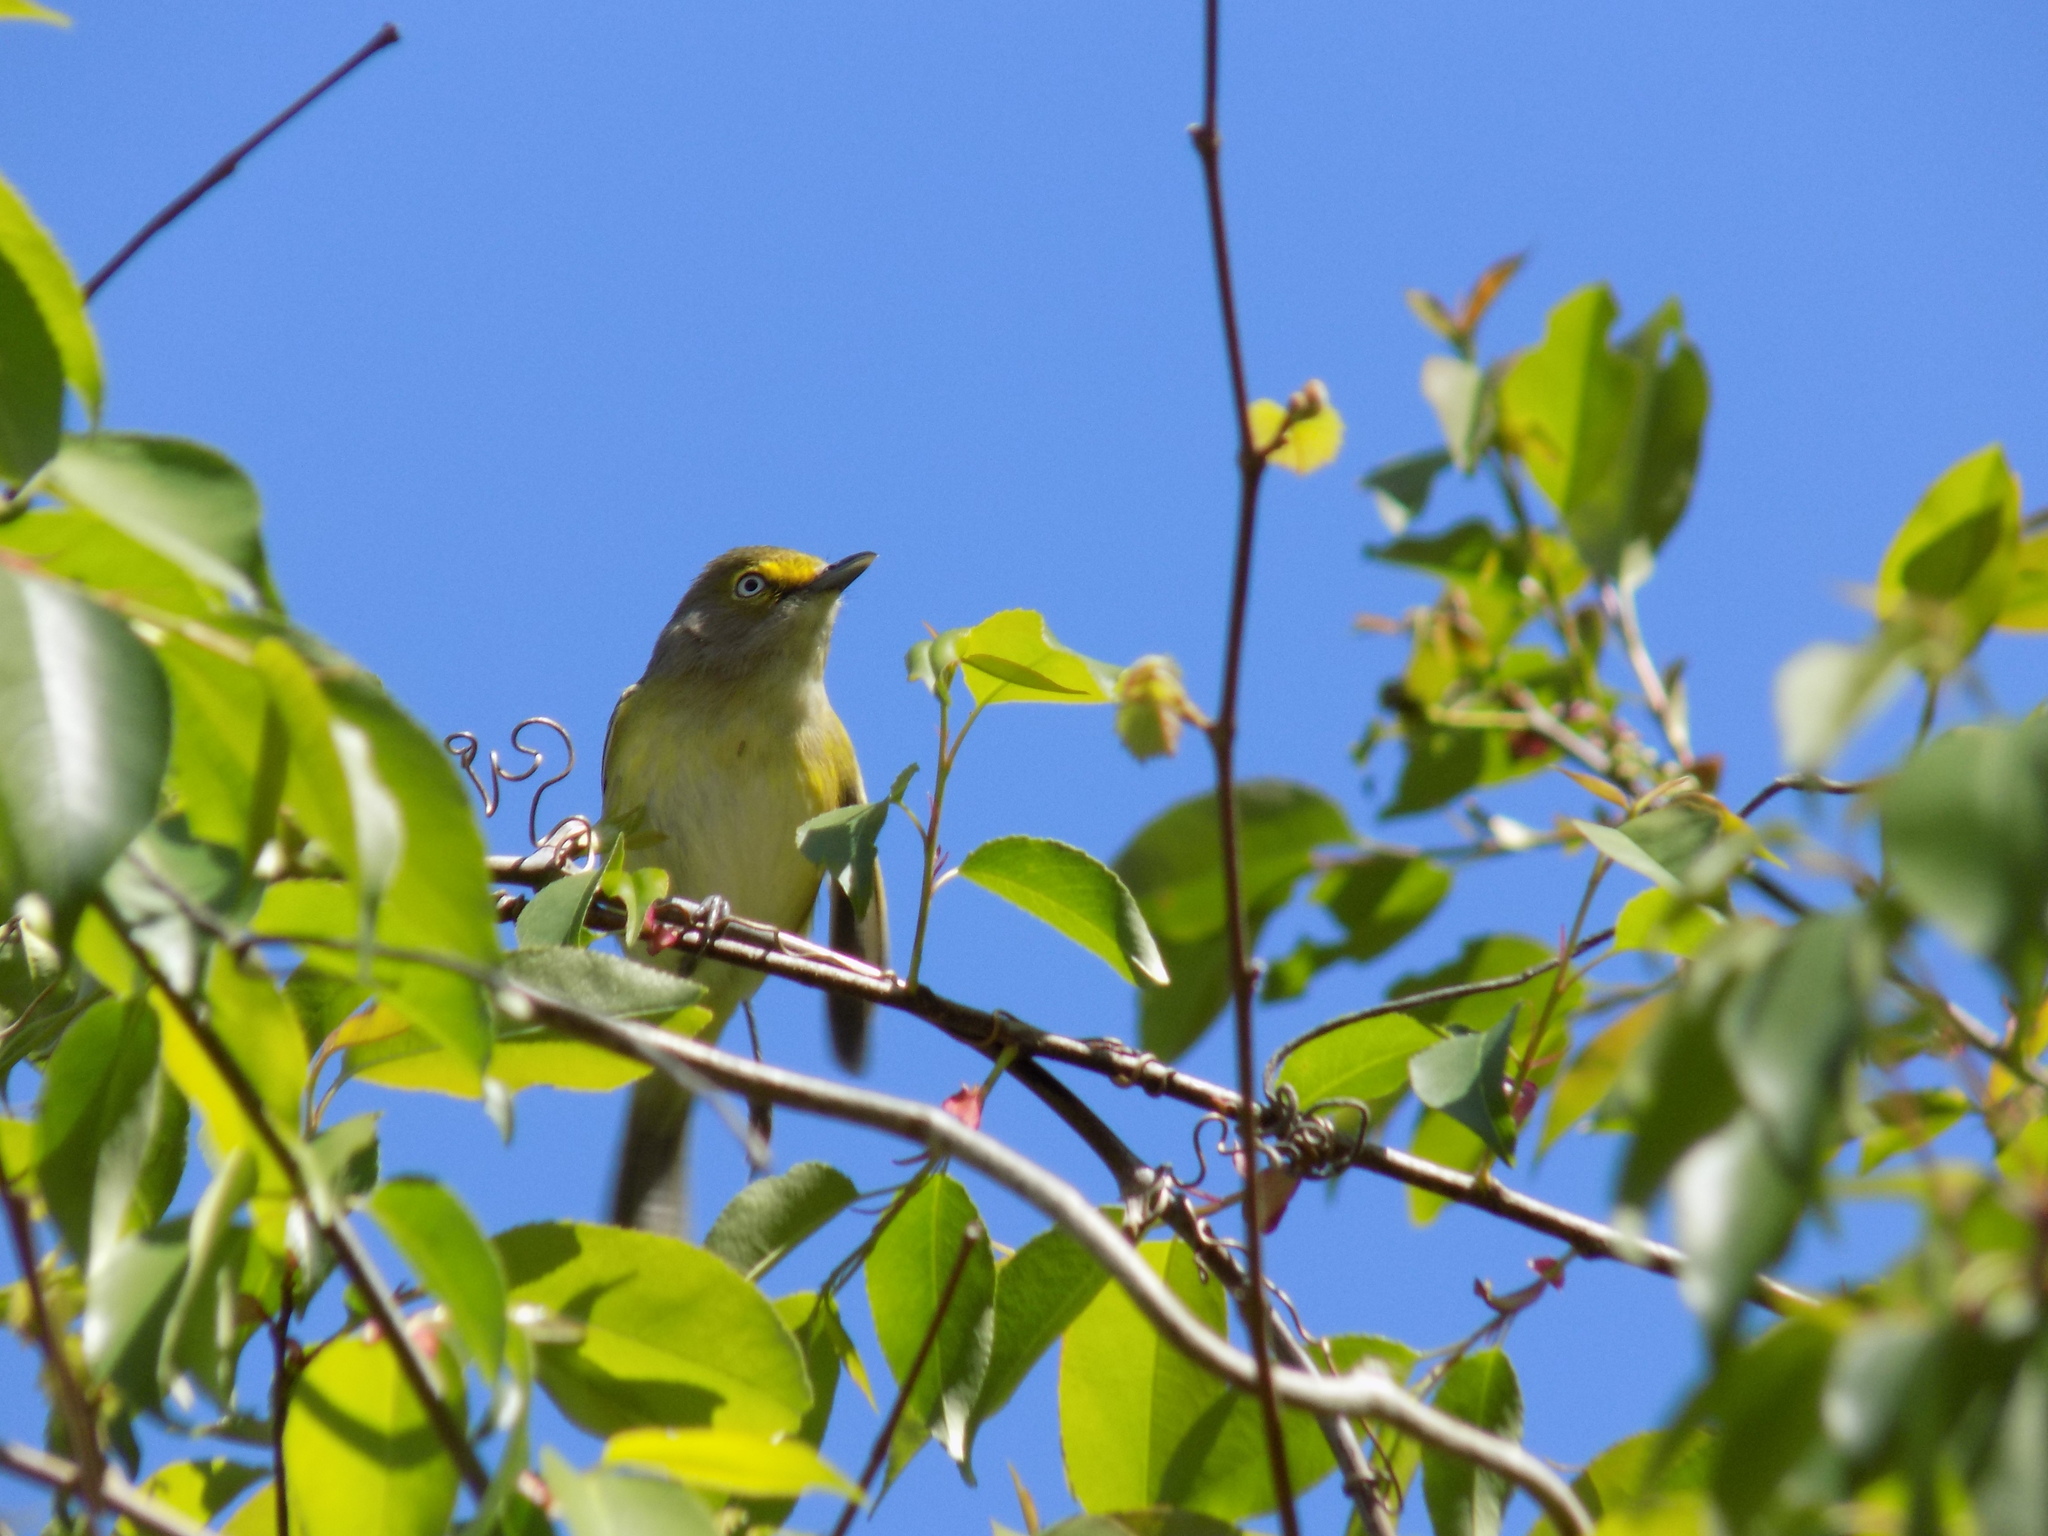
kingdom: Animalia
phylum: Chordata
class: Aves
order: Passeriformes
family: Vireonidae
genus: Vireo
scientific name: Vireo griseus
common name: White-eyed vireo
